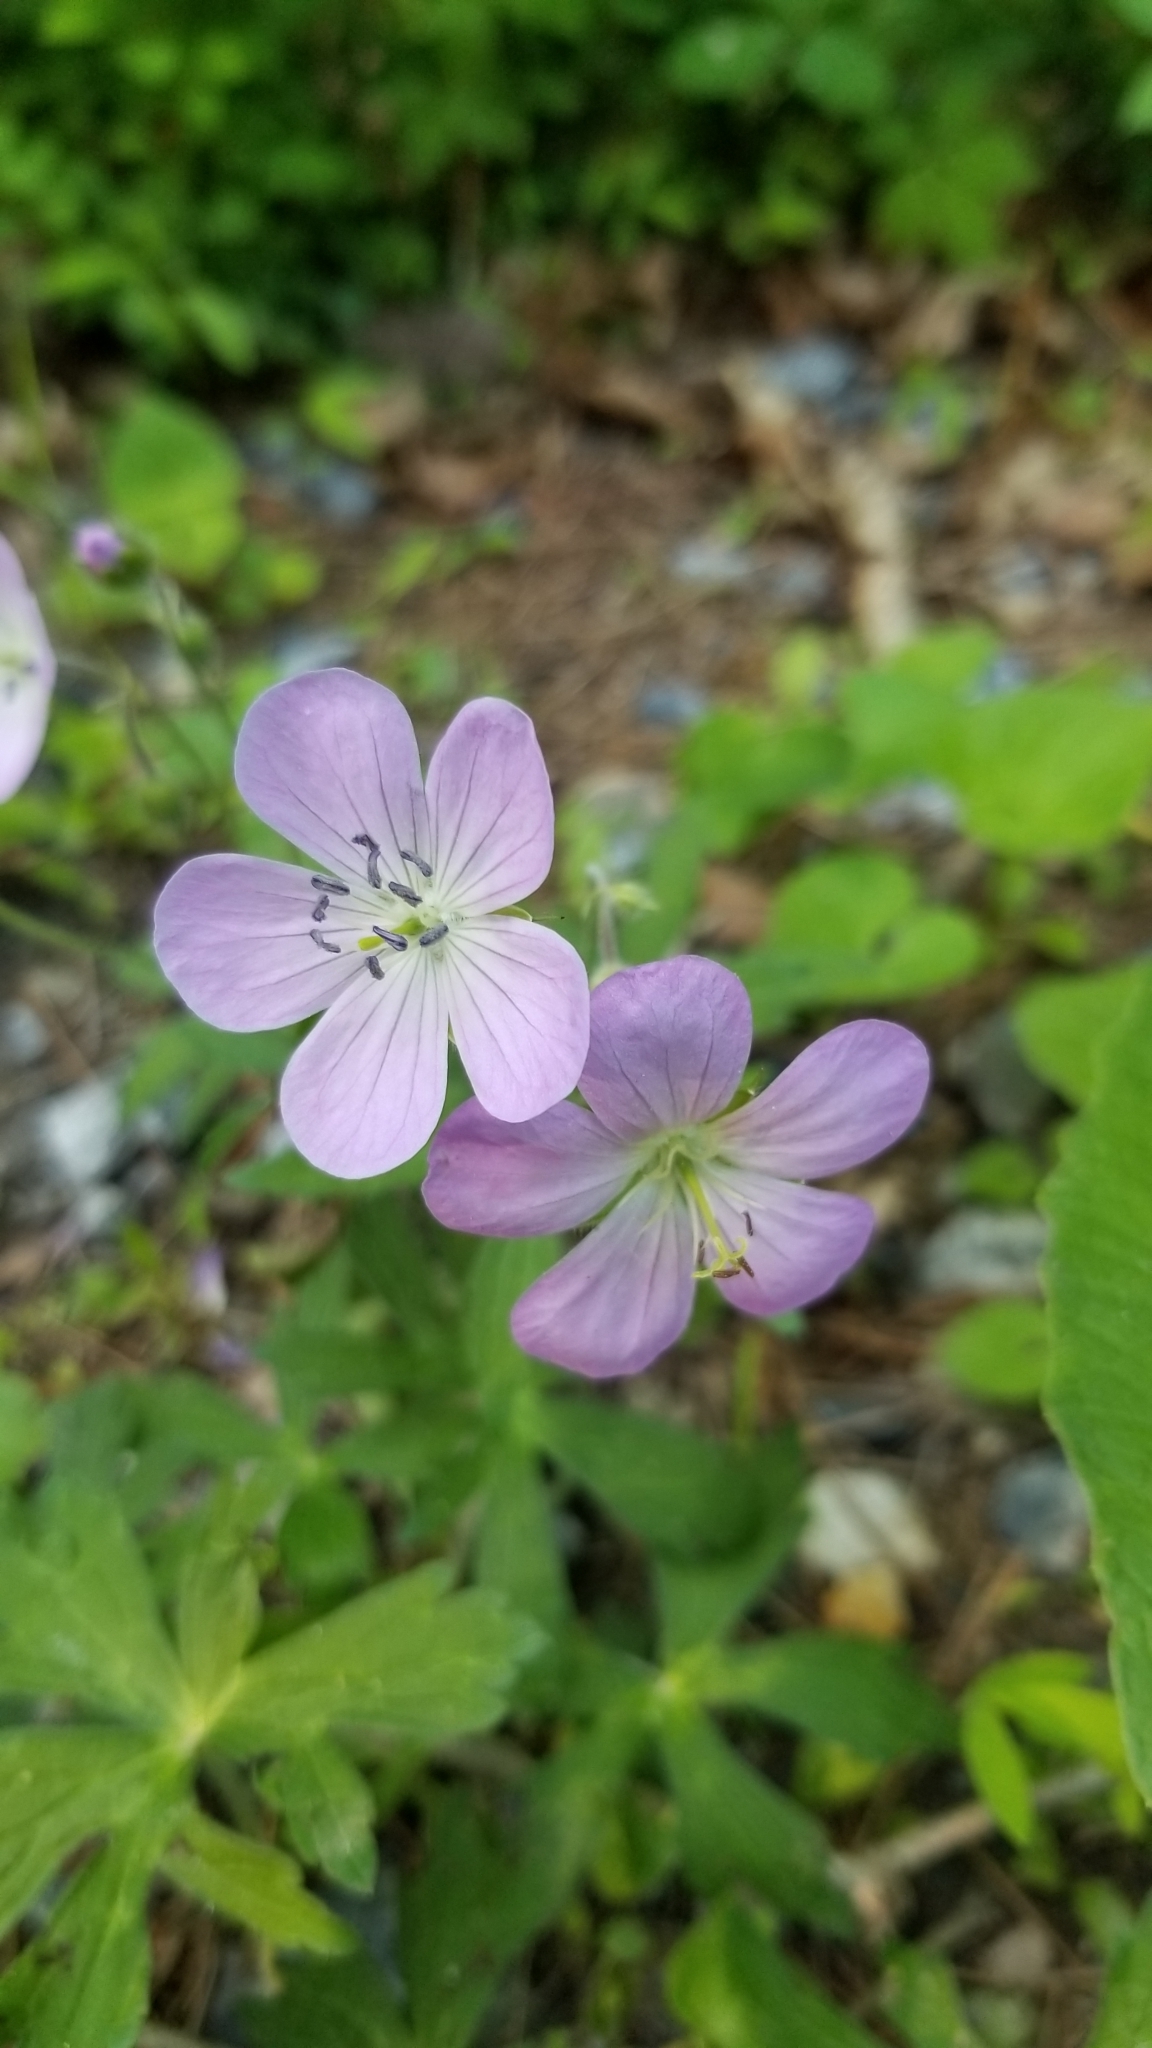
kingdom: Plantae
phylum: Tracheophyta
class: Magnoliopsida
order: Geraniales
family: Geraniaceae
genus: Geranium
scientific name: Geranium maculatum
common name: Spotted geranium
